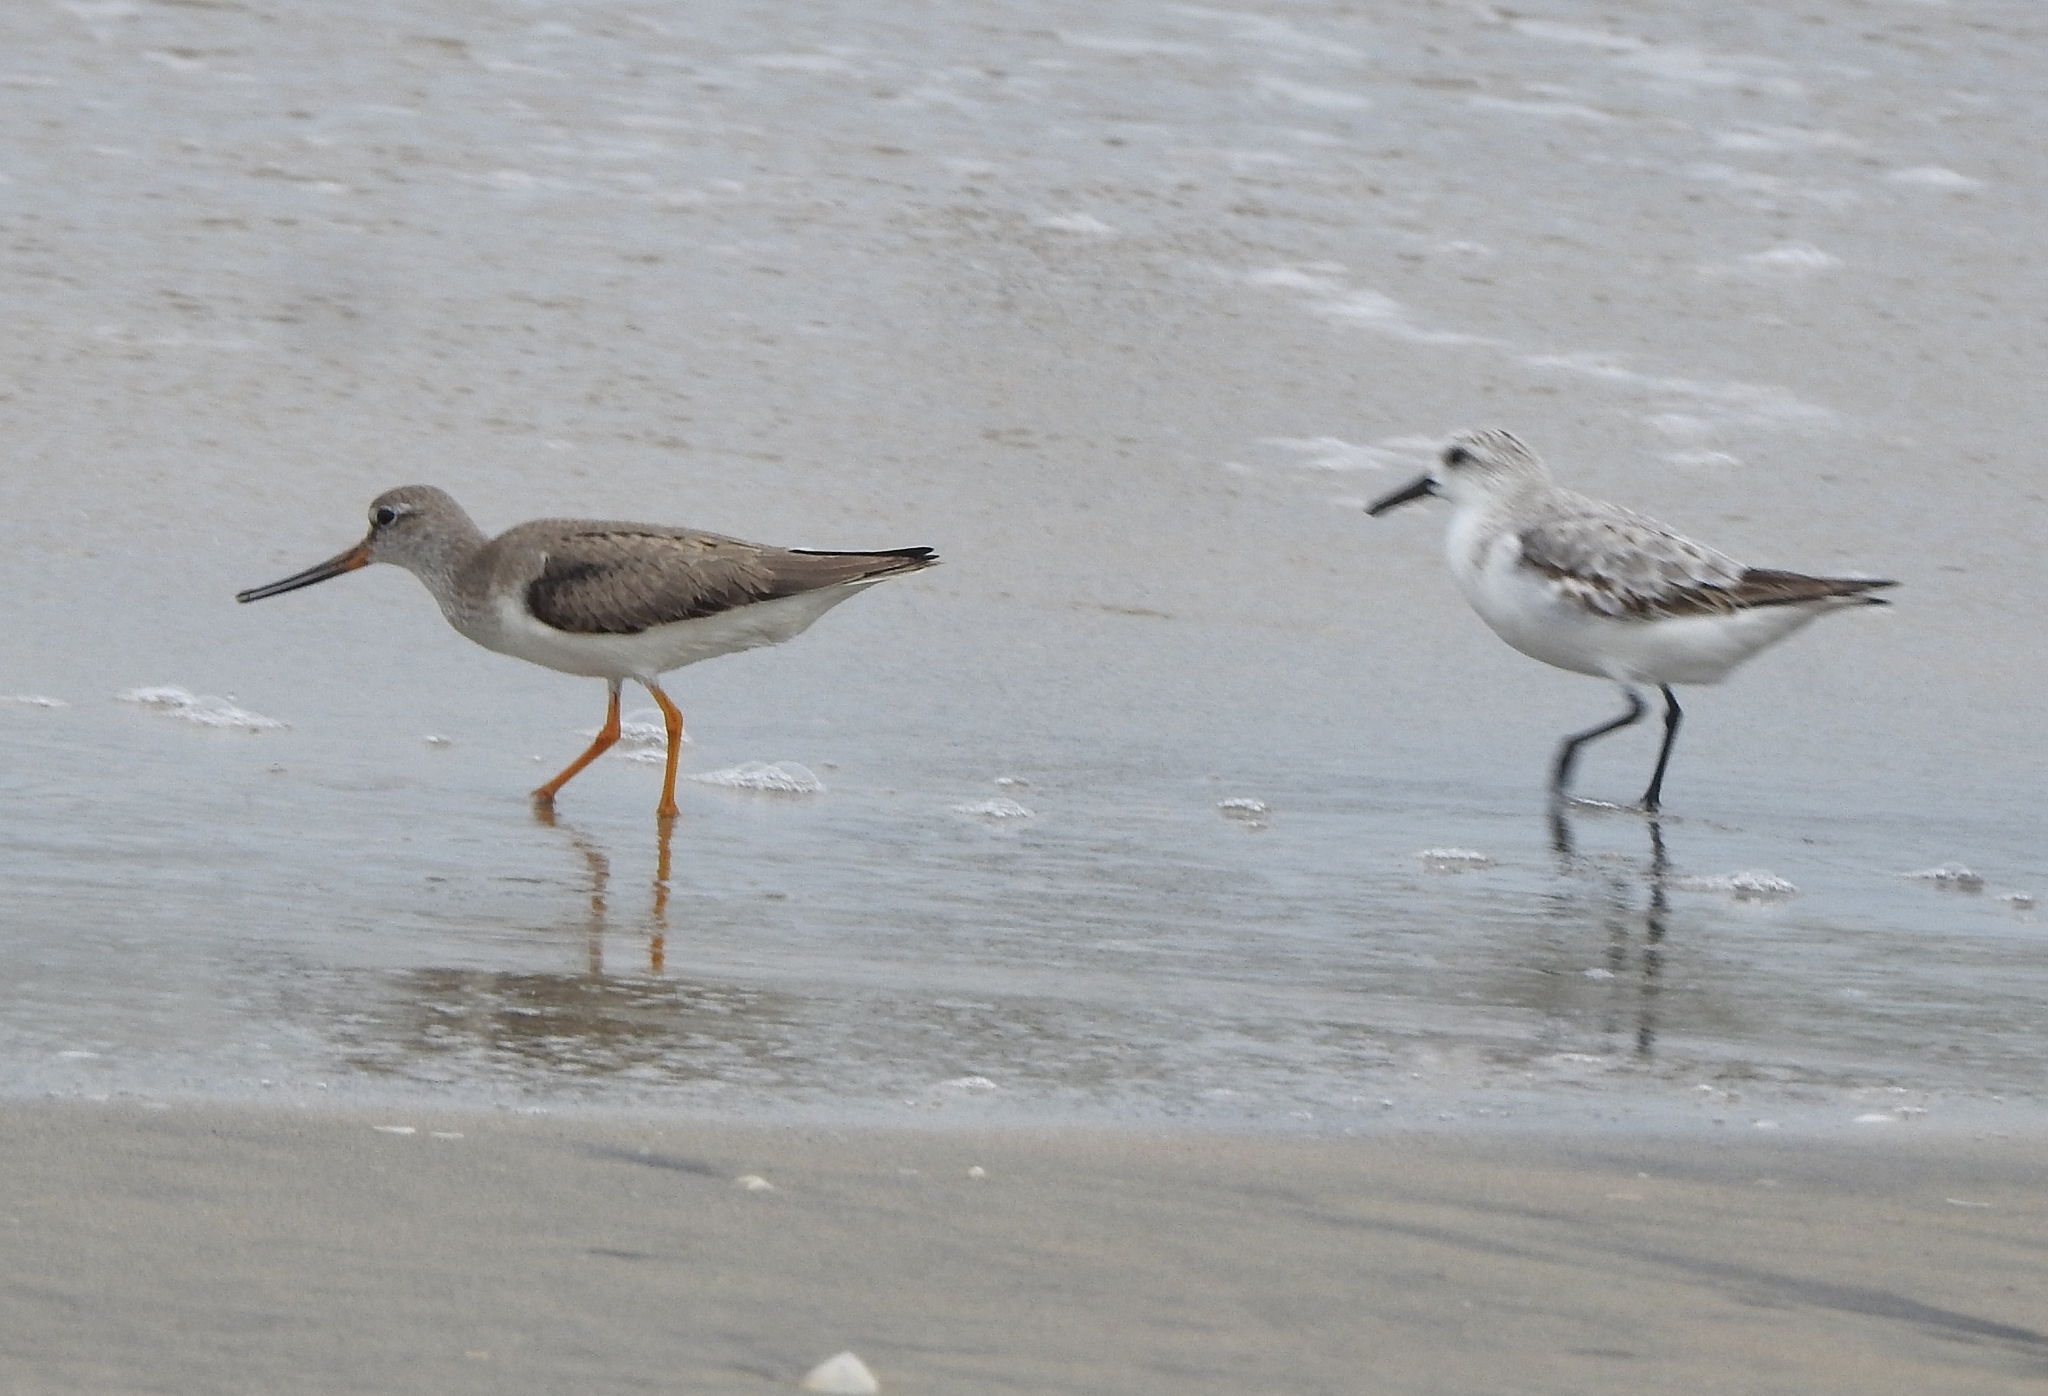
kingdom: Animalia
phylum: Chordata
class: Aves
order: Charadriiformes
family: Scolopacidae
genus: Xenus
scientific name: Xenus cinereus
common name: Terek sandpiper
